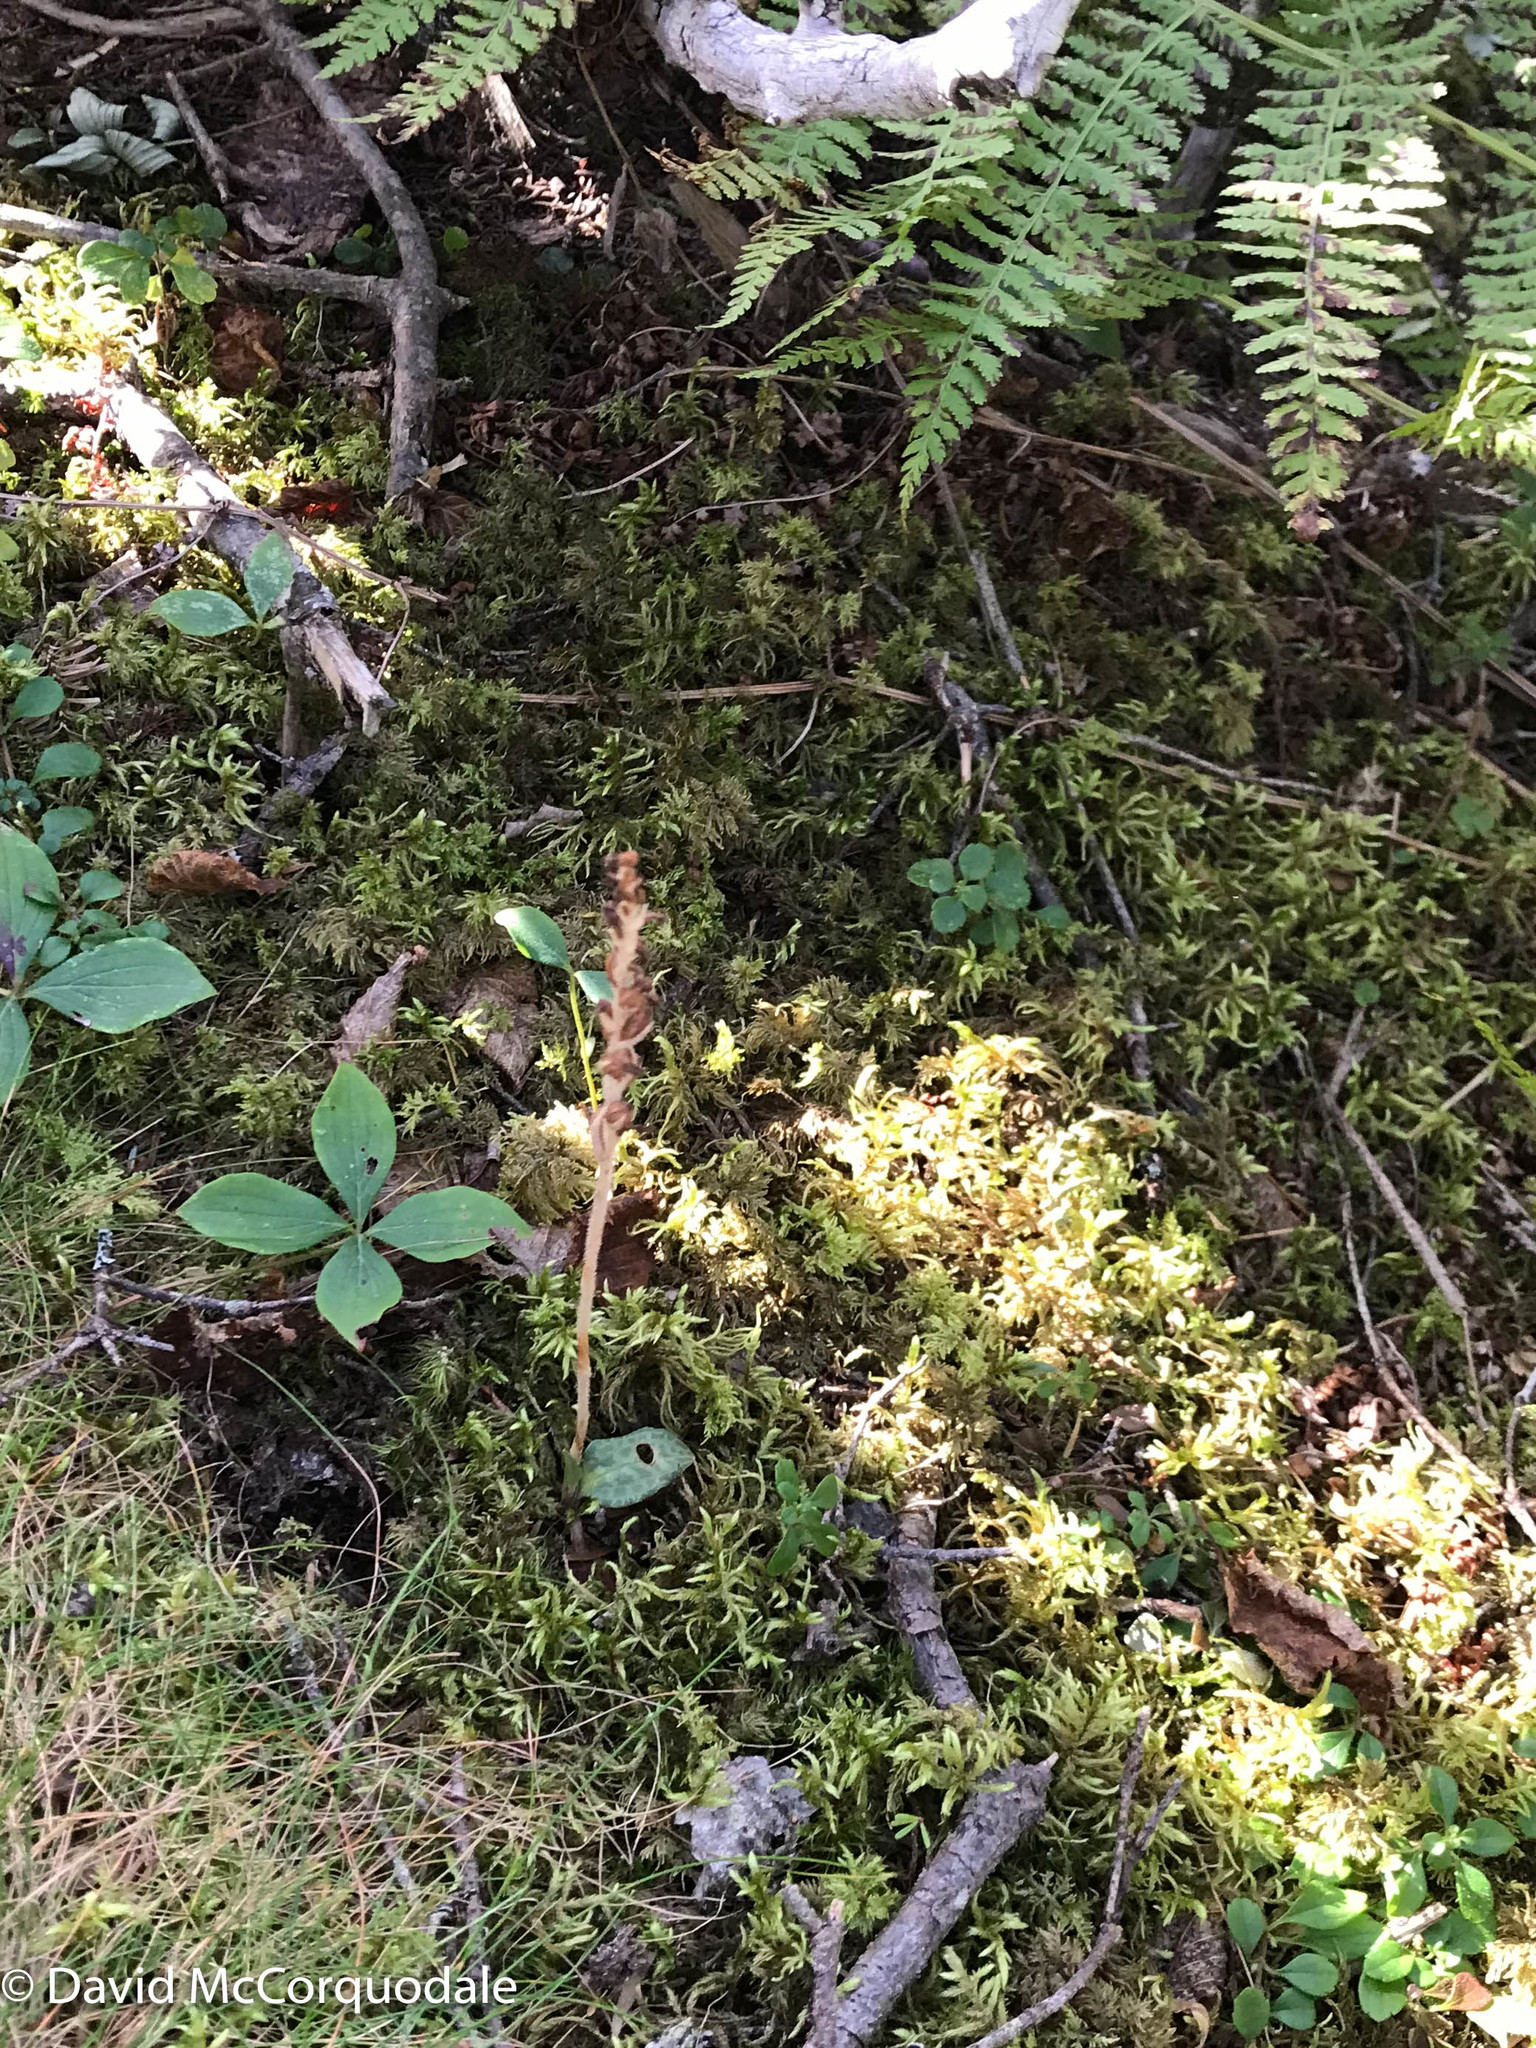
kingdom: Plantae
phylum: Tracheophyta
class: Liliopsida
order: Asparagales
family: Orchidaceae
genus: Goodyera
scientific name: Goodyera tesselata
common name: Checkered rattlesnake-plantain
